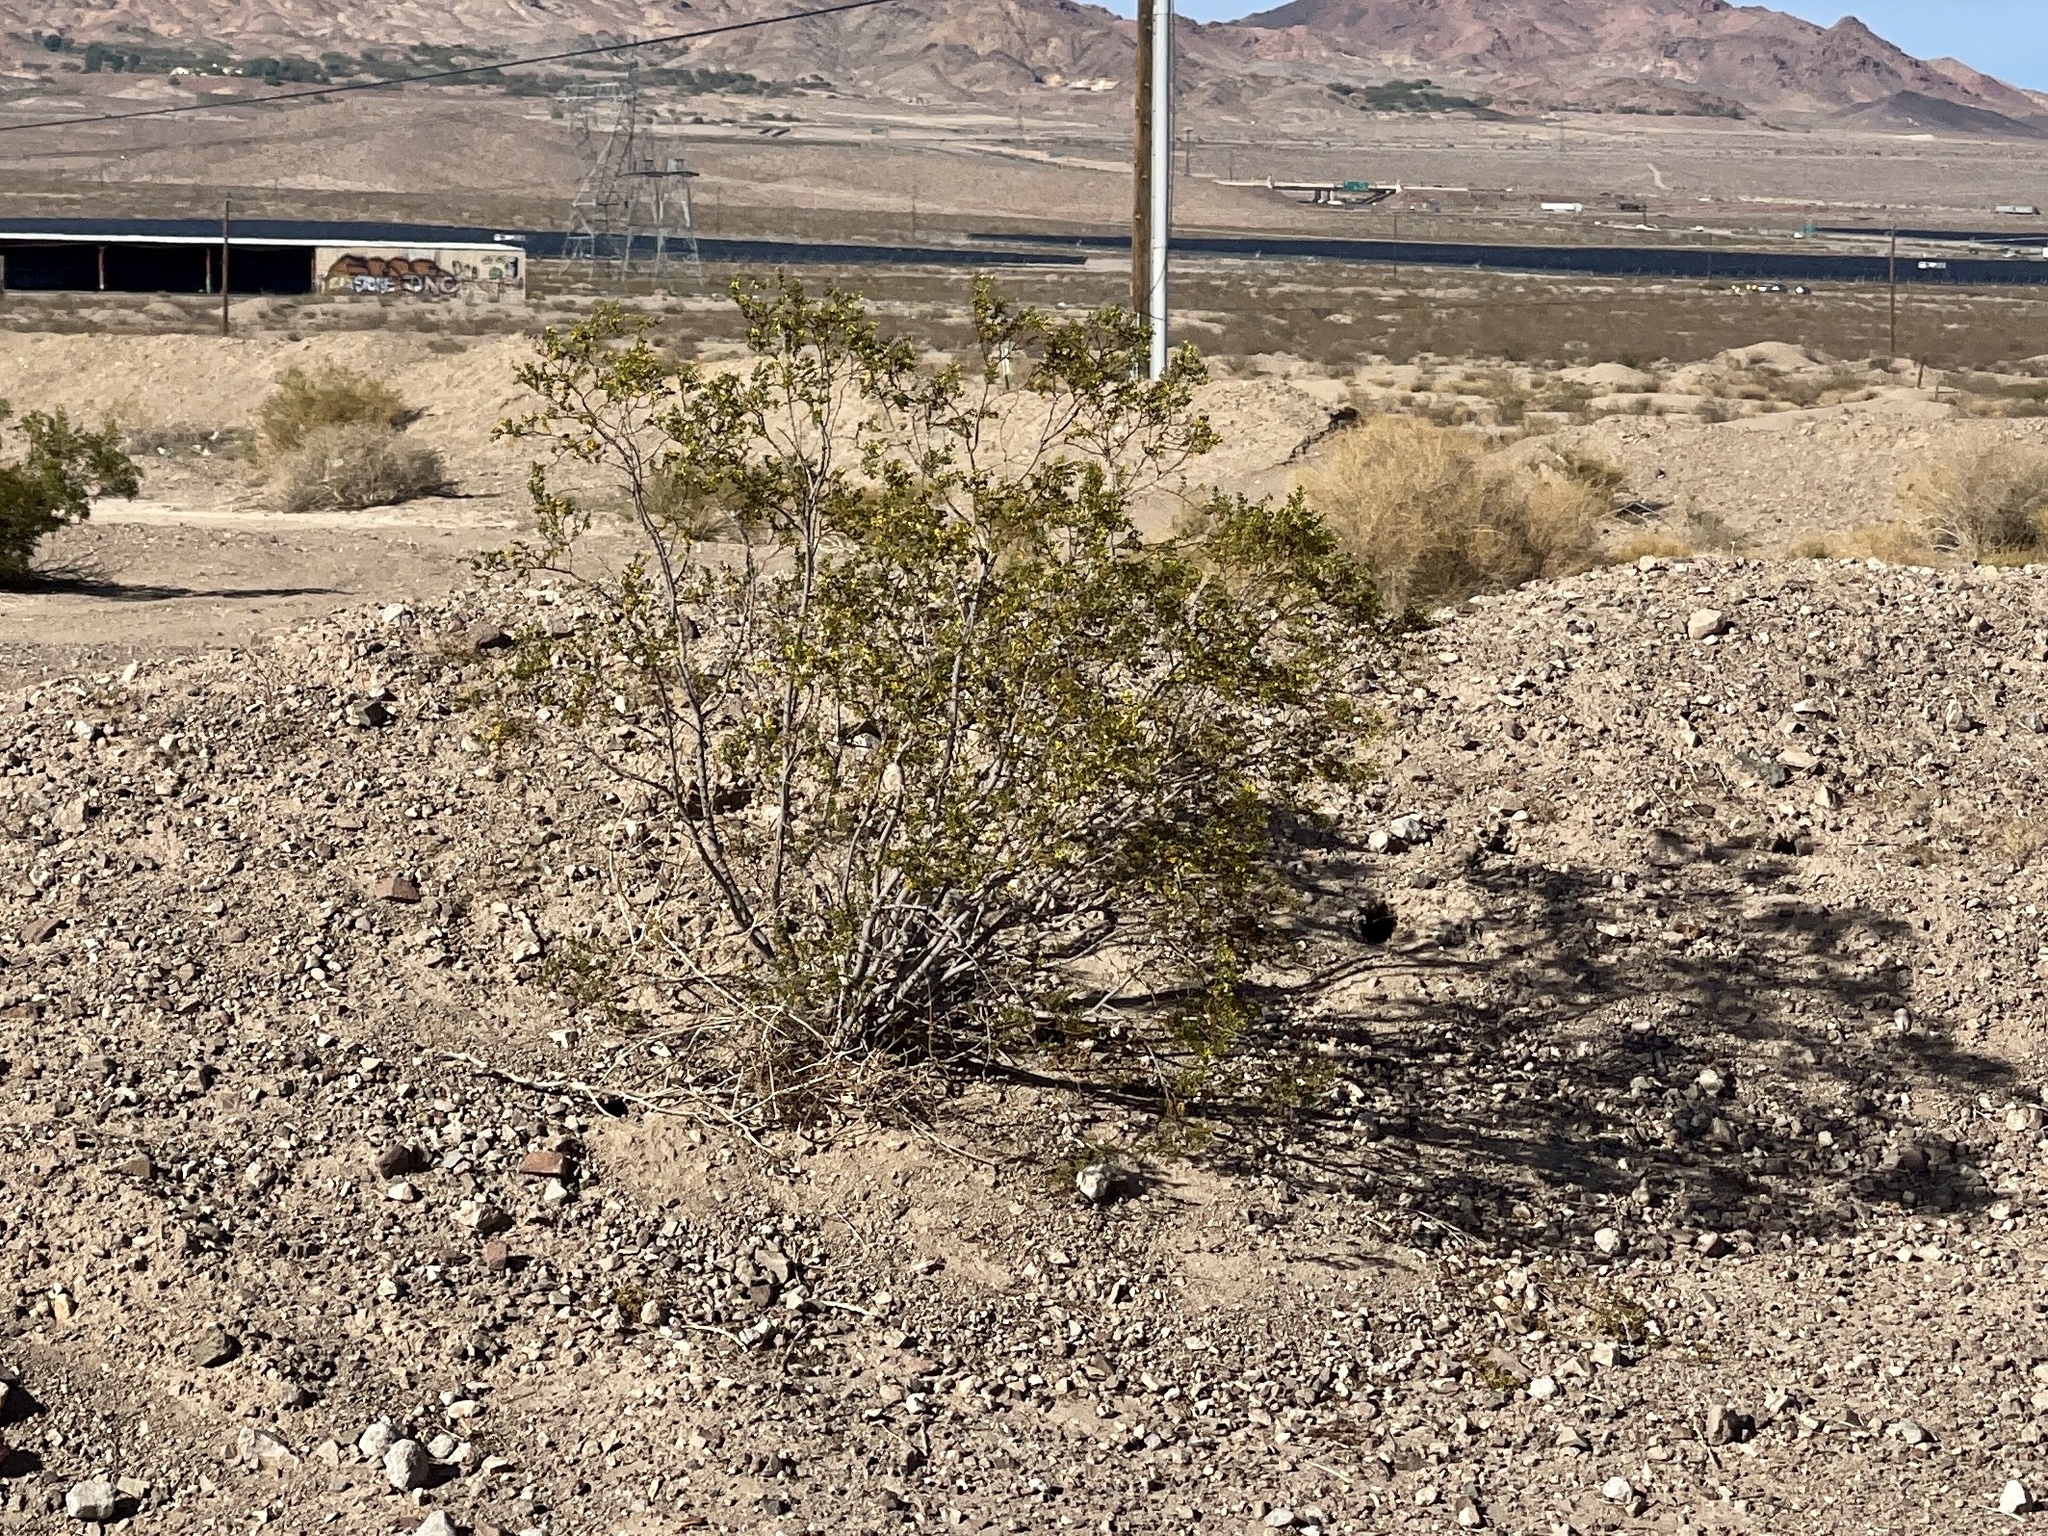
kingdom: Plantae
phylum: Tracheophyta
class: Magnoliopsida
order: Zygophyllales
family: Zygophyllaceae
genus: Larrea
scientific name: Larrea tridentata
